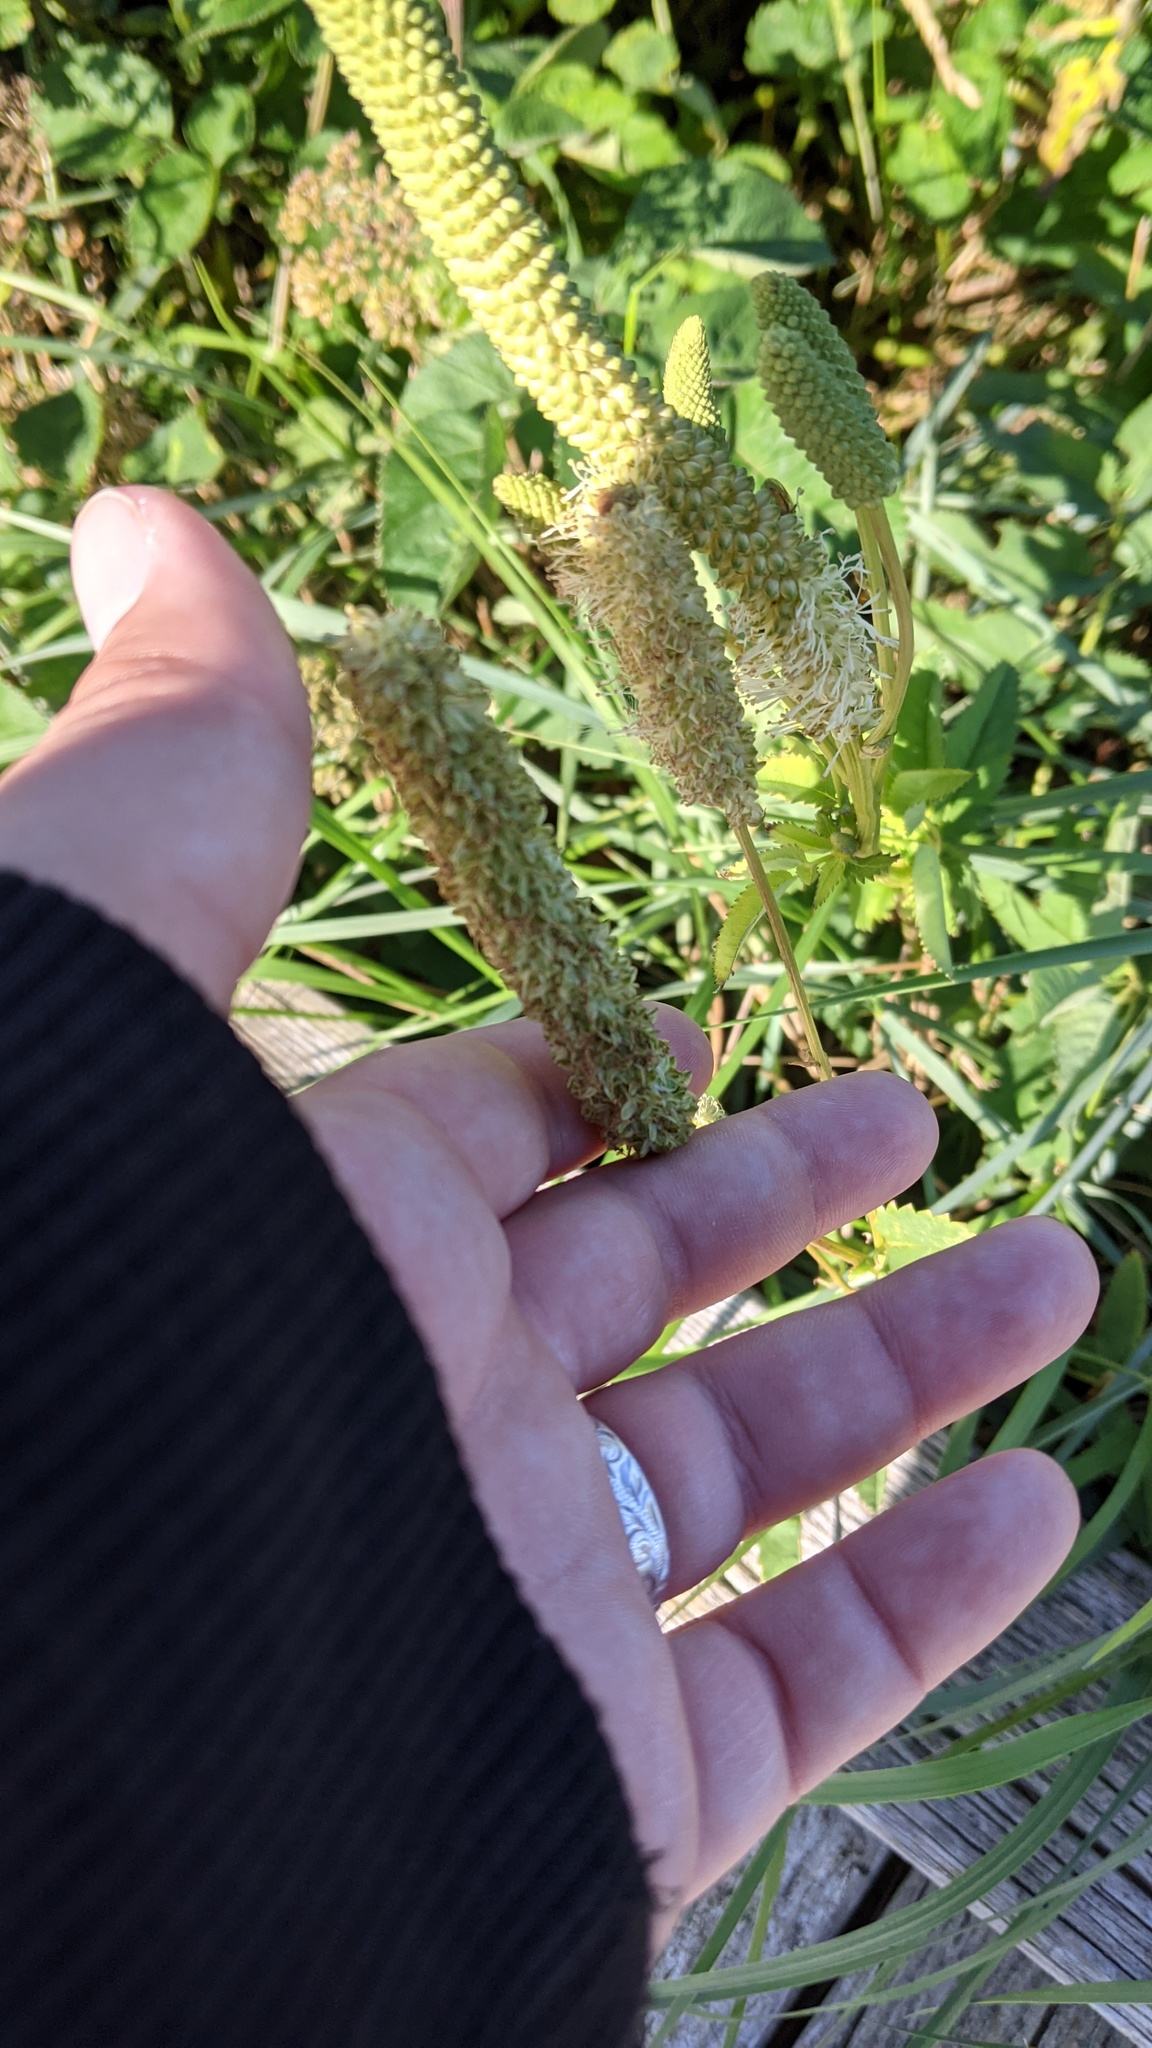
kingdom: Plantae
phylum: Tracheophyta
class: Magnoliopsida
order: Rosales
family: Rosaceae
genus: Sanguisorba
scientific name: Sanguisorba canadensis
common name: White burnet
